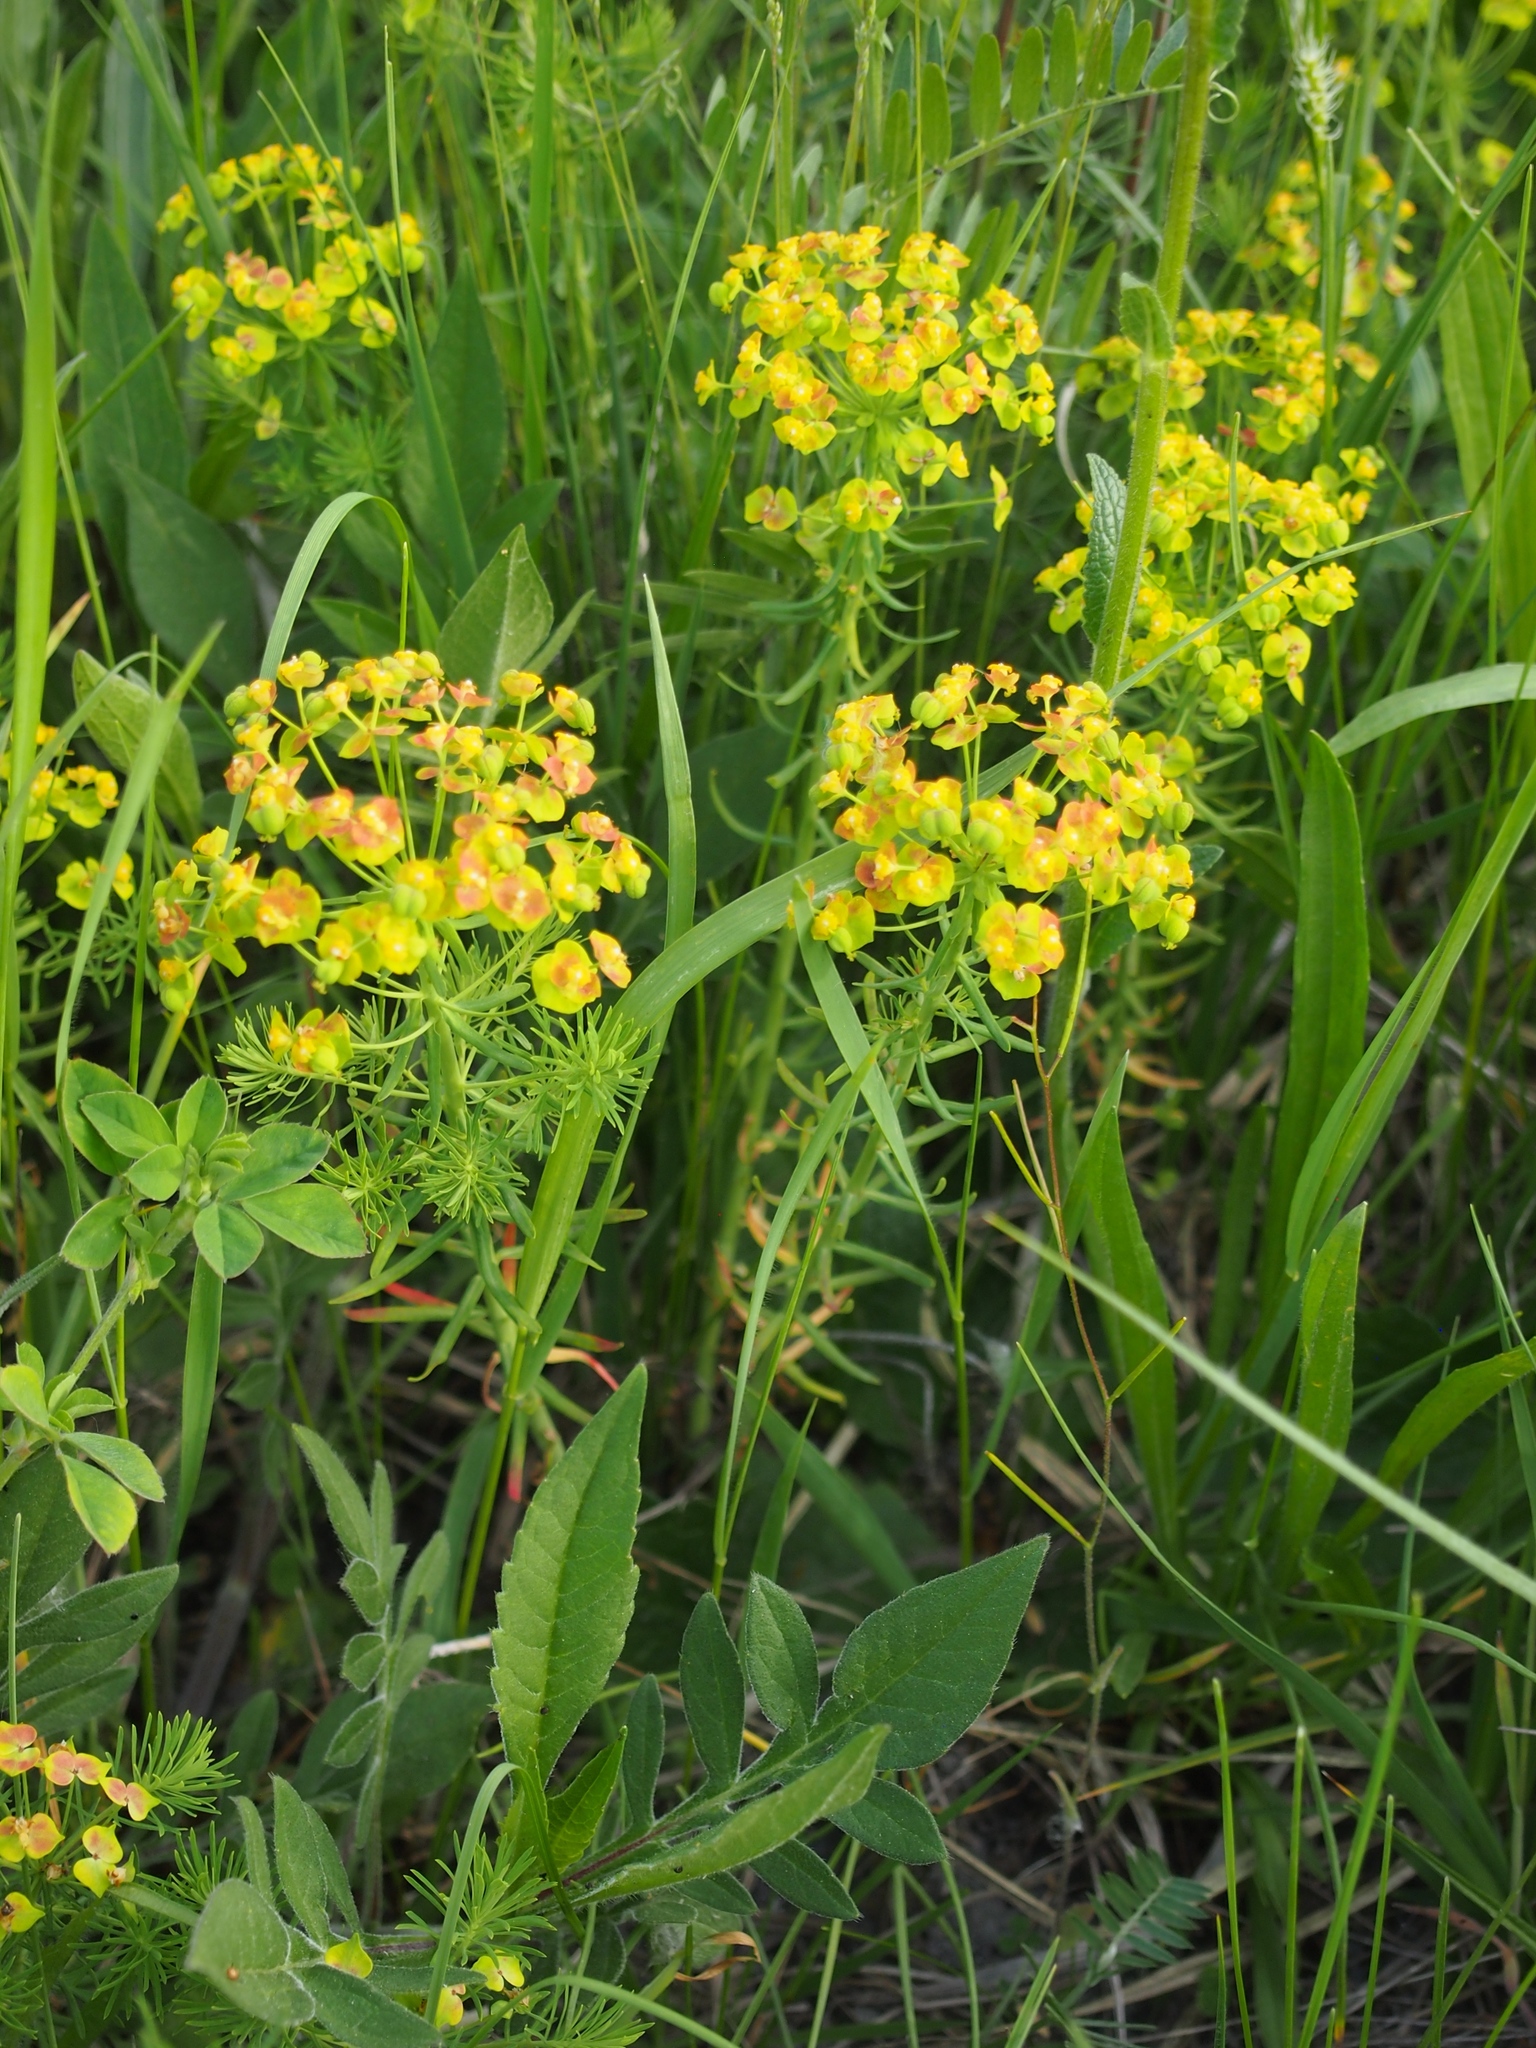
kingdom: Plantae
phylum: Tracheophyta
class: Magnoliopsida
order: Malpighiales
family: Euphorbiaceae
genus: Euphorbia
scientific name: Euphorbia cyparissias
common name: Cypress spurge
